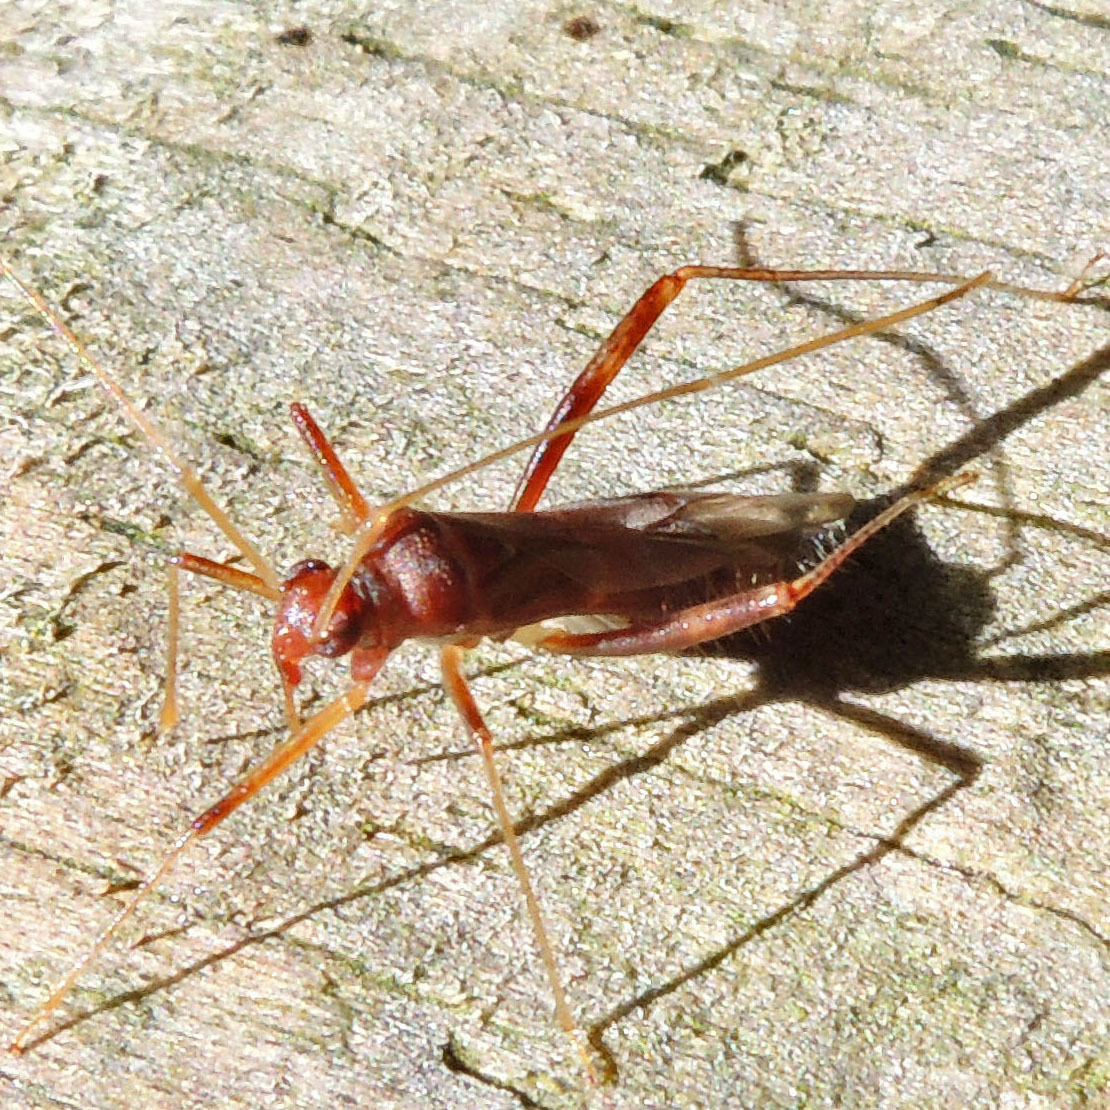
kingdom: Animalia
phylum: Arthropoda
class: Insecta
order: Hemiptera
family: Miridae
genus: Paraxenetus
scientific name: Paraxenetus guttulatus
